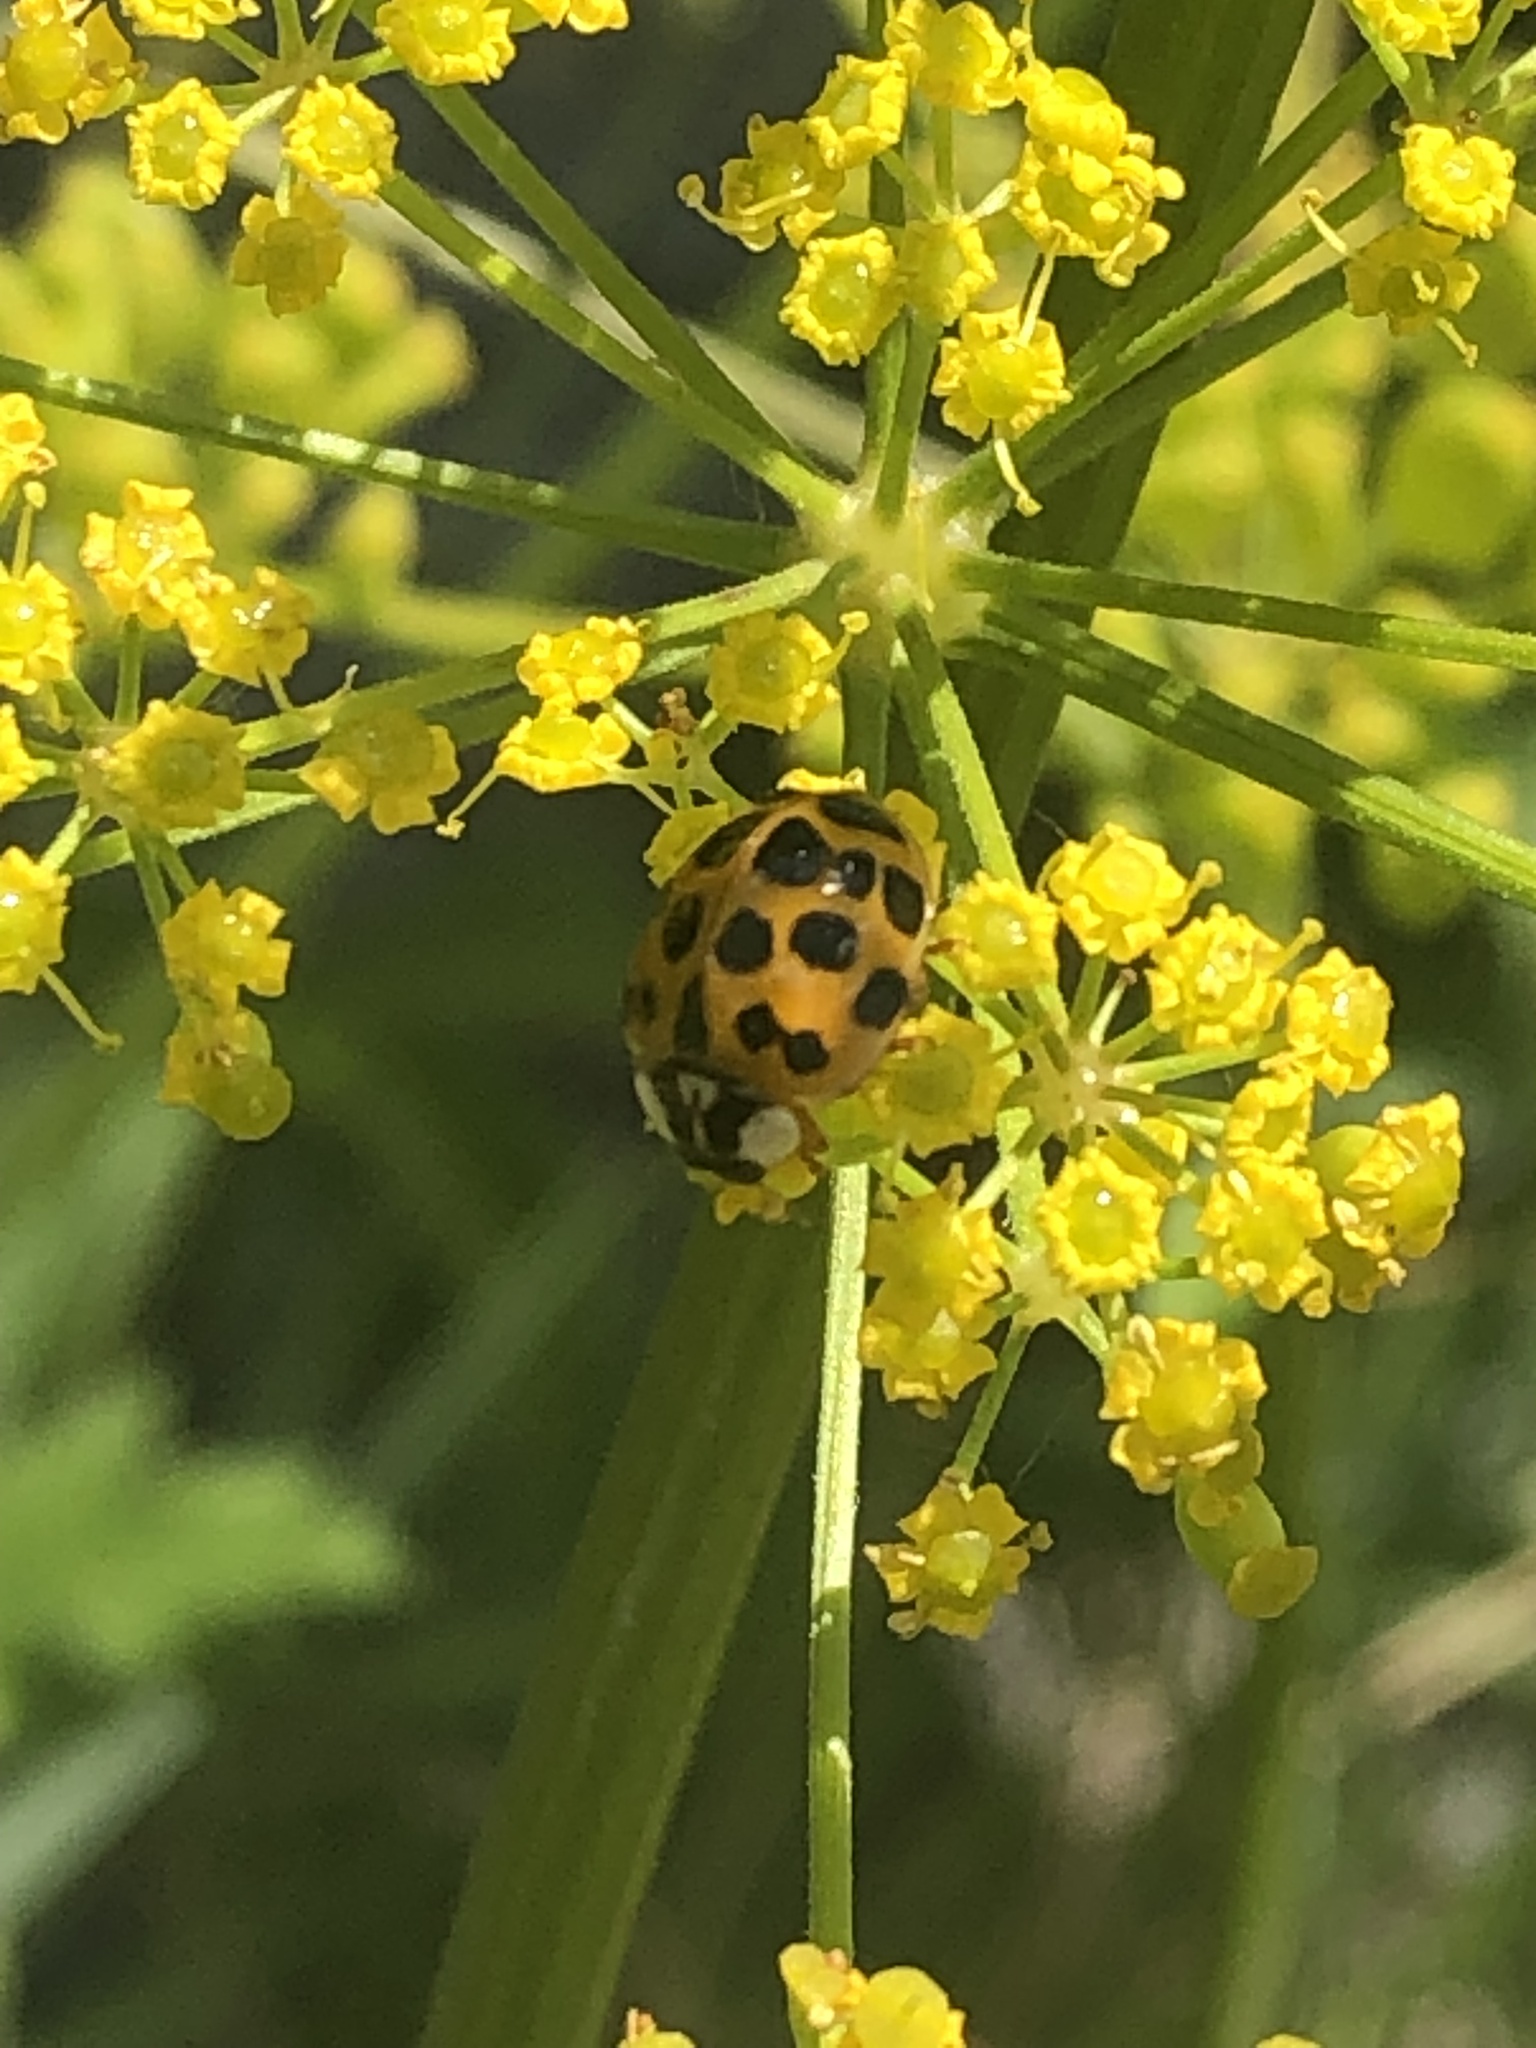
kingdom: Animalia
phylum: Arthropoda
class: Insecta
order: Coleoptera
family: Coccinellidae
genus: Harmonia
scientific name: Harmonia axyridis
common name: Harlequin ladybird
